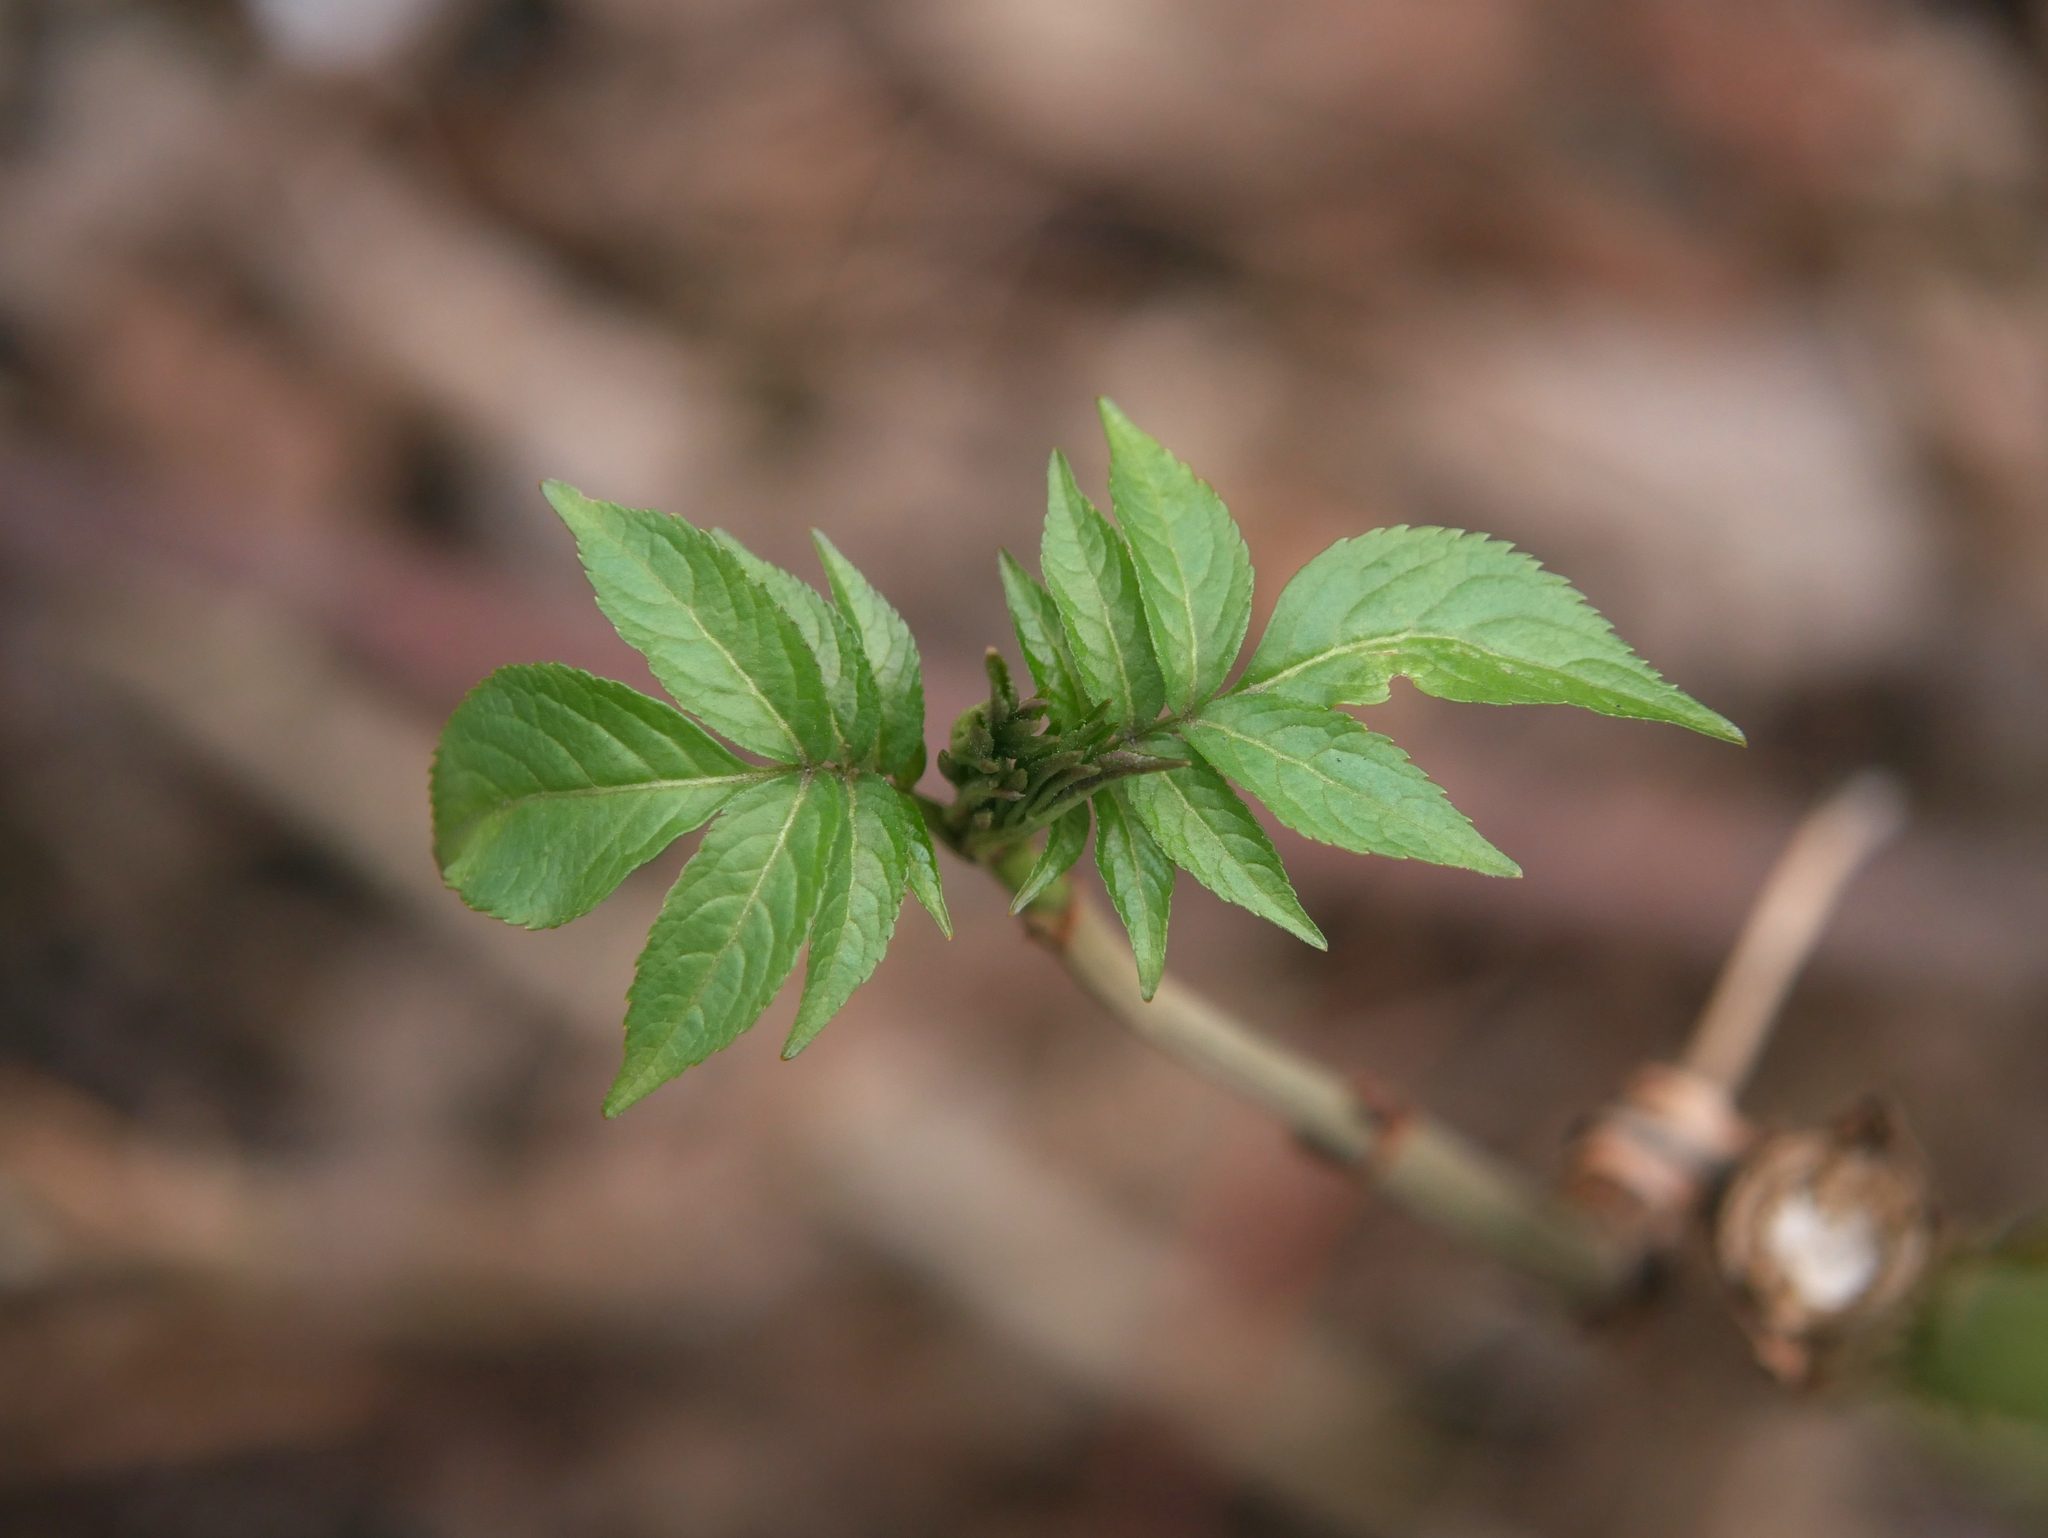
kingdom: Plantae
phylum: Tracheophyta
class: Magnoliopsida
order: Dipsacales
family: Viburnaceae
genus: Sambucus
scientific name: Sambucus nigra
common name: Elder
